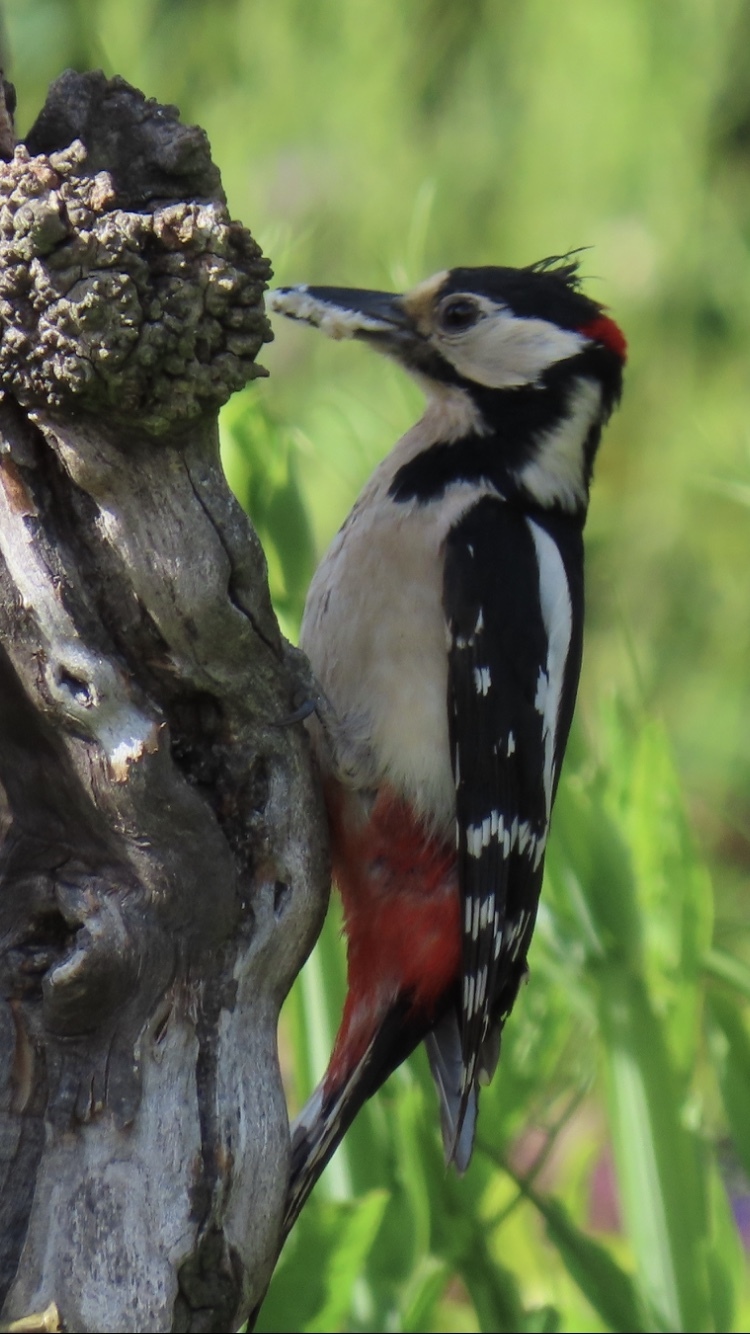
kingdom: Animalia
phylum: Chordata
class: Aves
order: Piciformes
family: Picidae
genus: Dendrocopos
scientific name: Dendrocopos major
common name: Great spotted woodpecker
